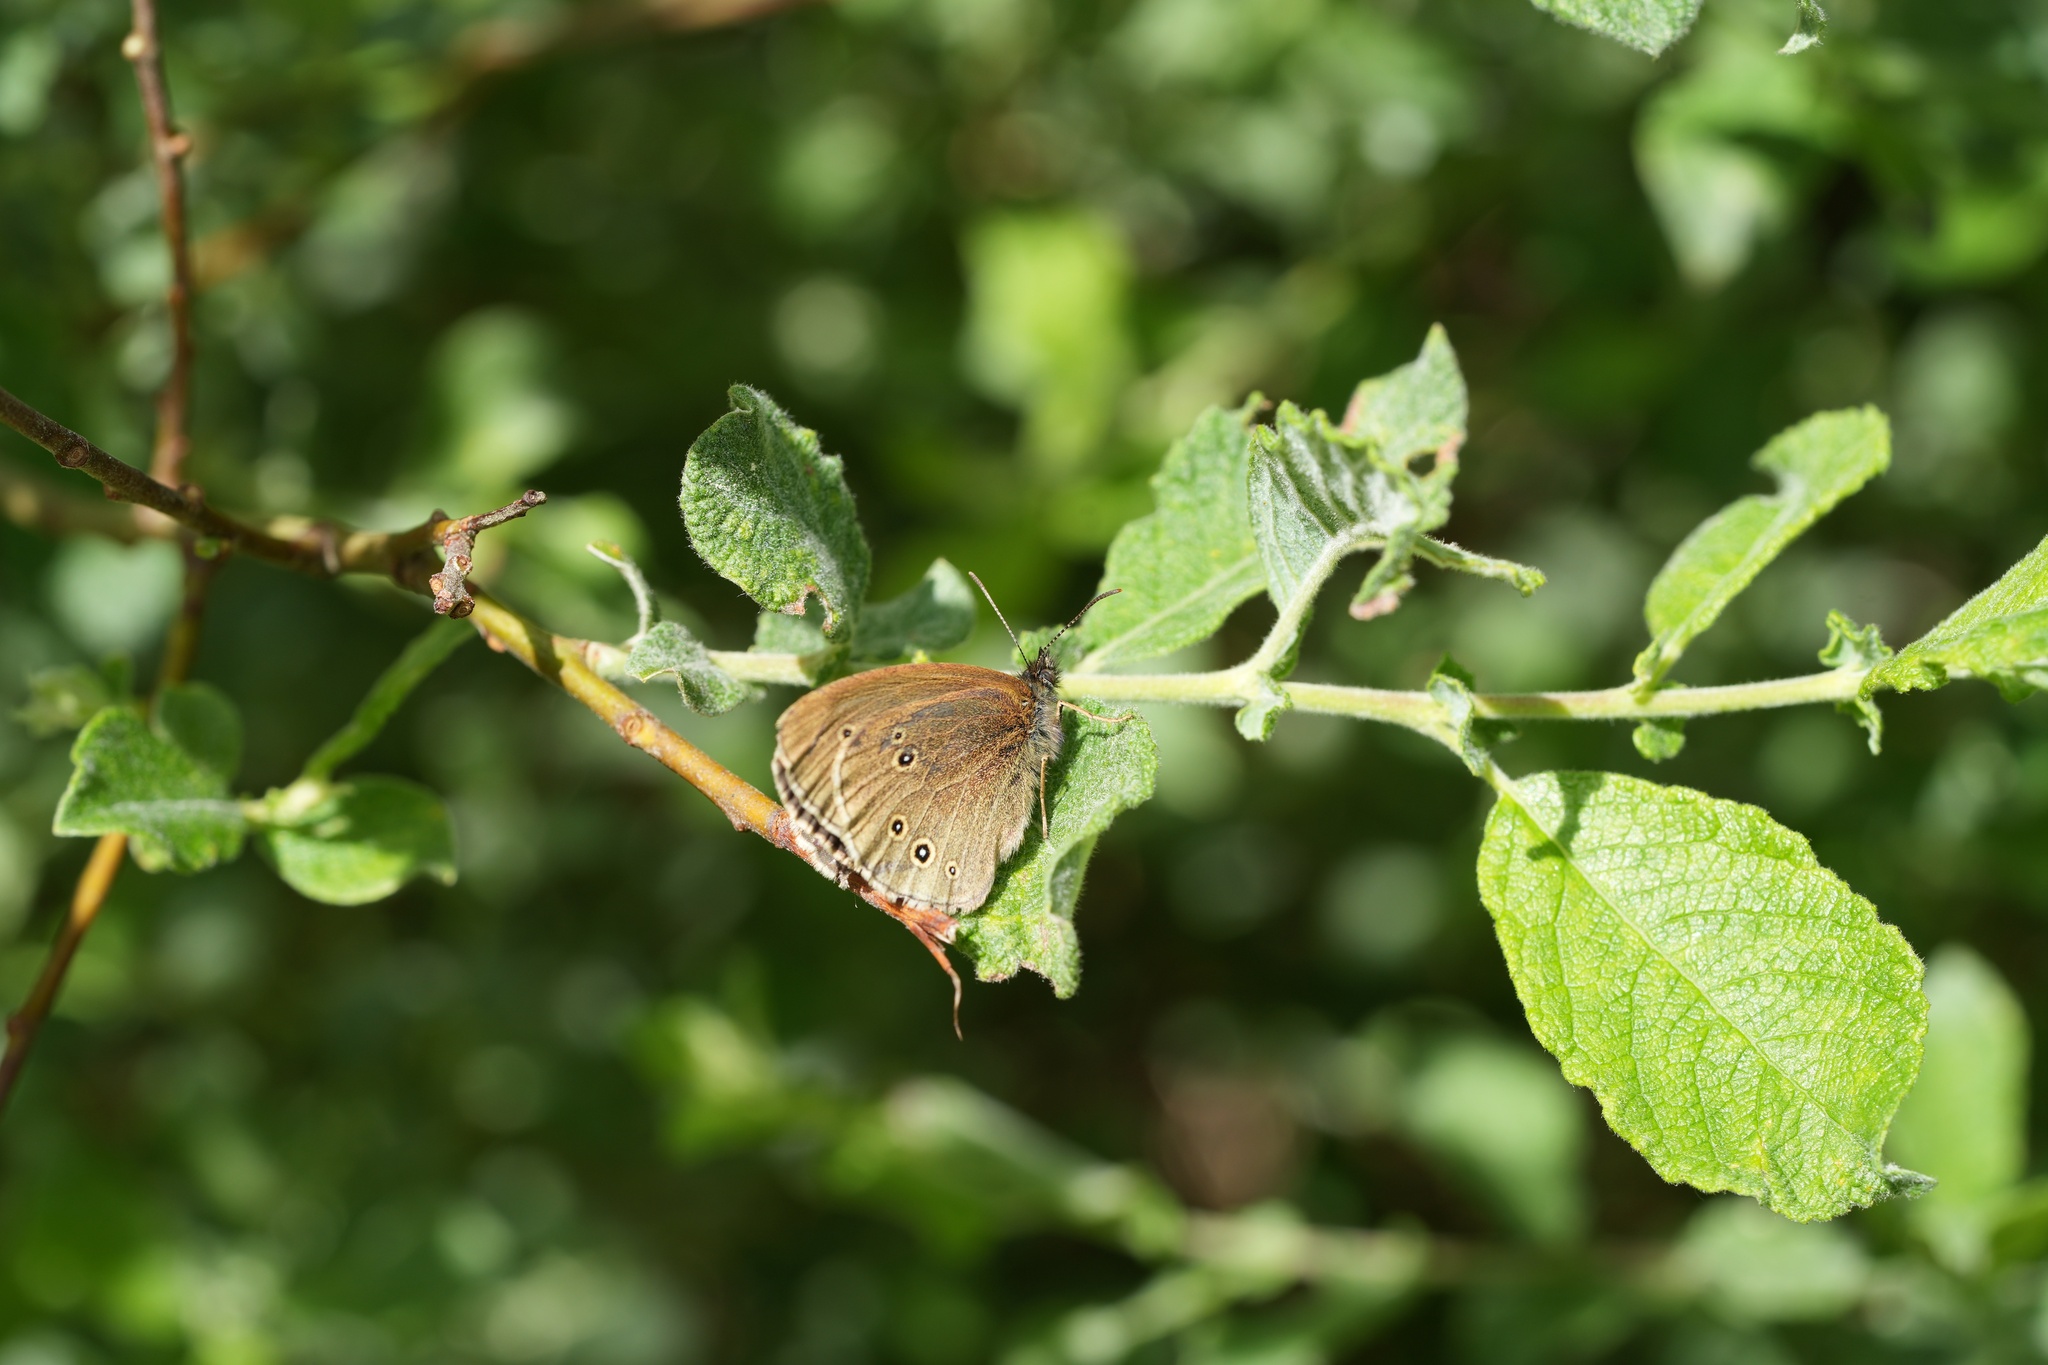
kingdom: Animalia
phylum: Arthropoda
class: Insecta
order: Lepidoptera
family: Nymphalidae
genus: Aphantopus
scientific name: Aphantopus hyperantus
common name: Ringlet
